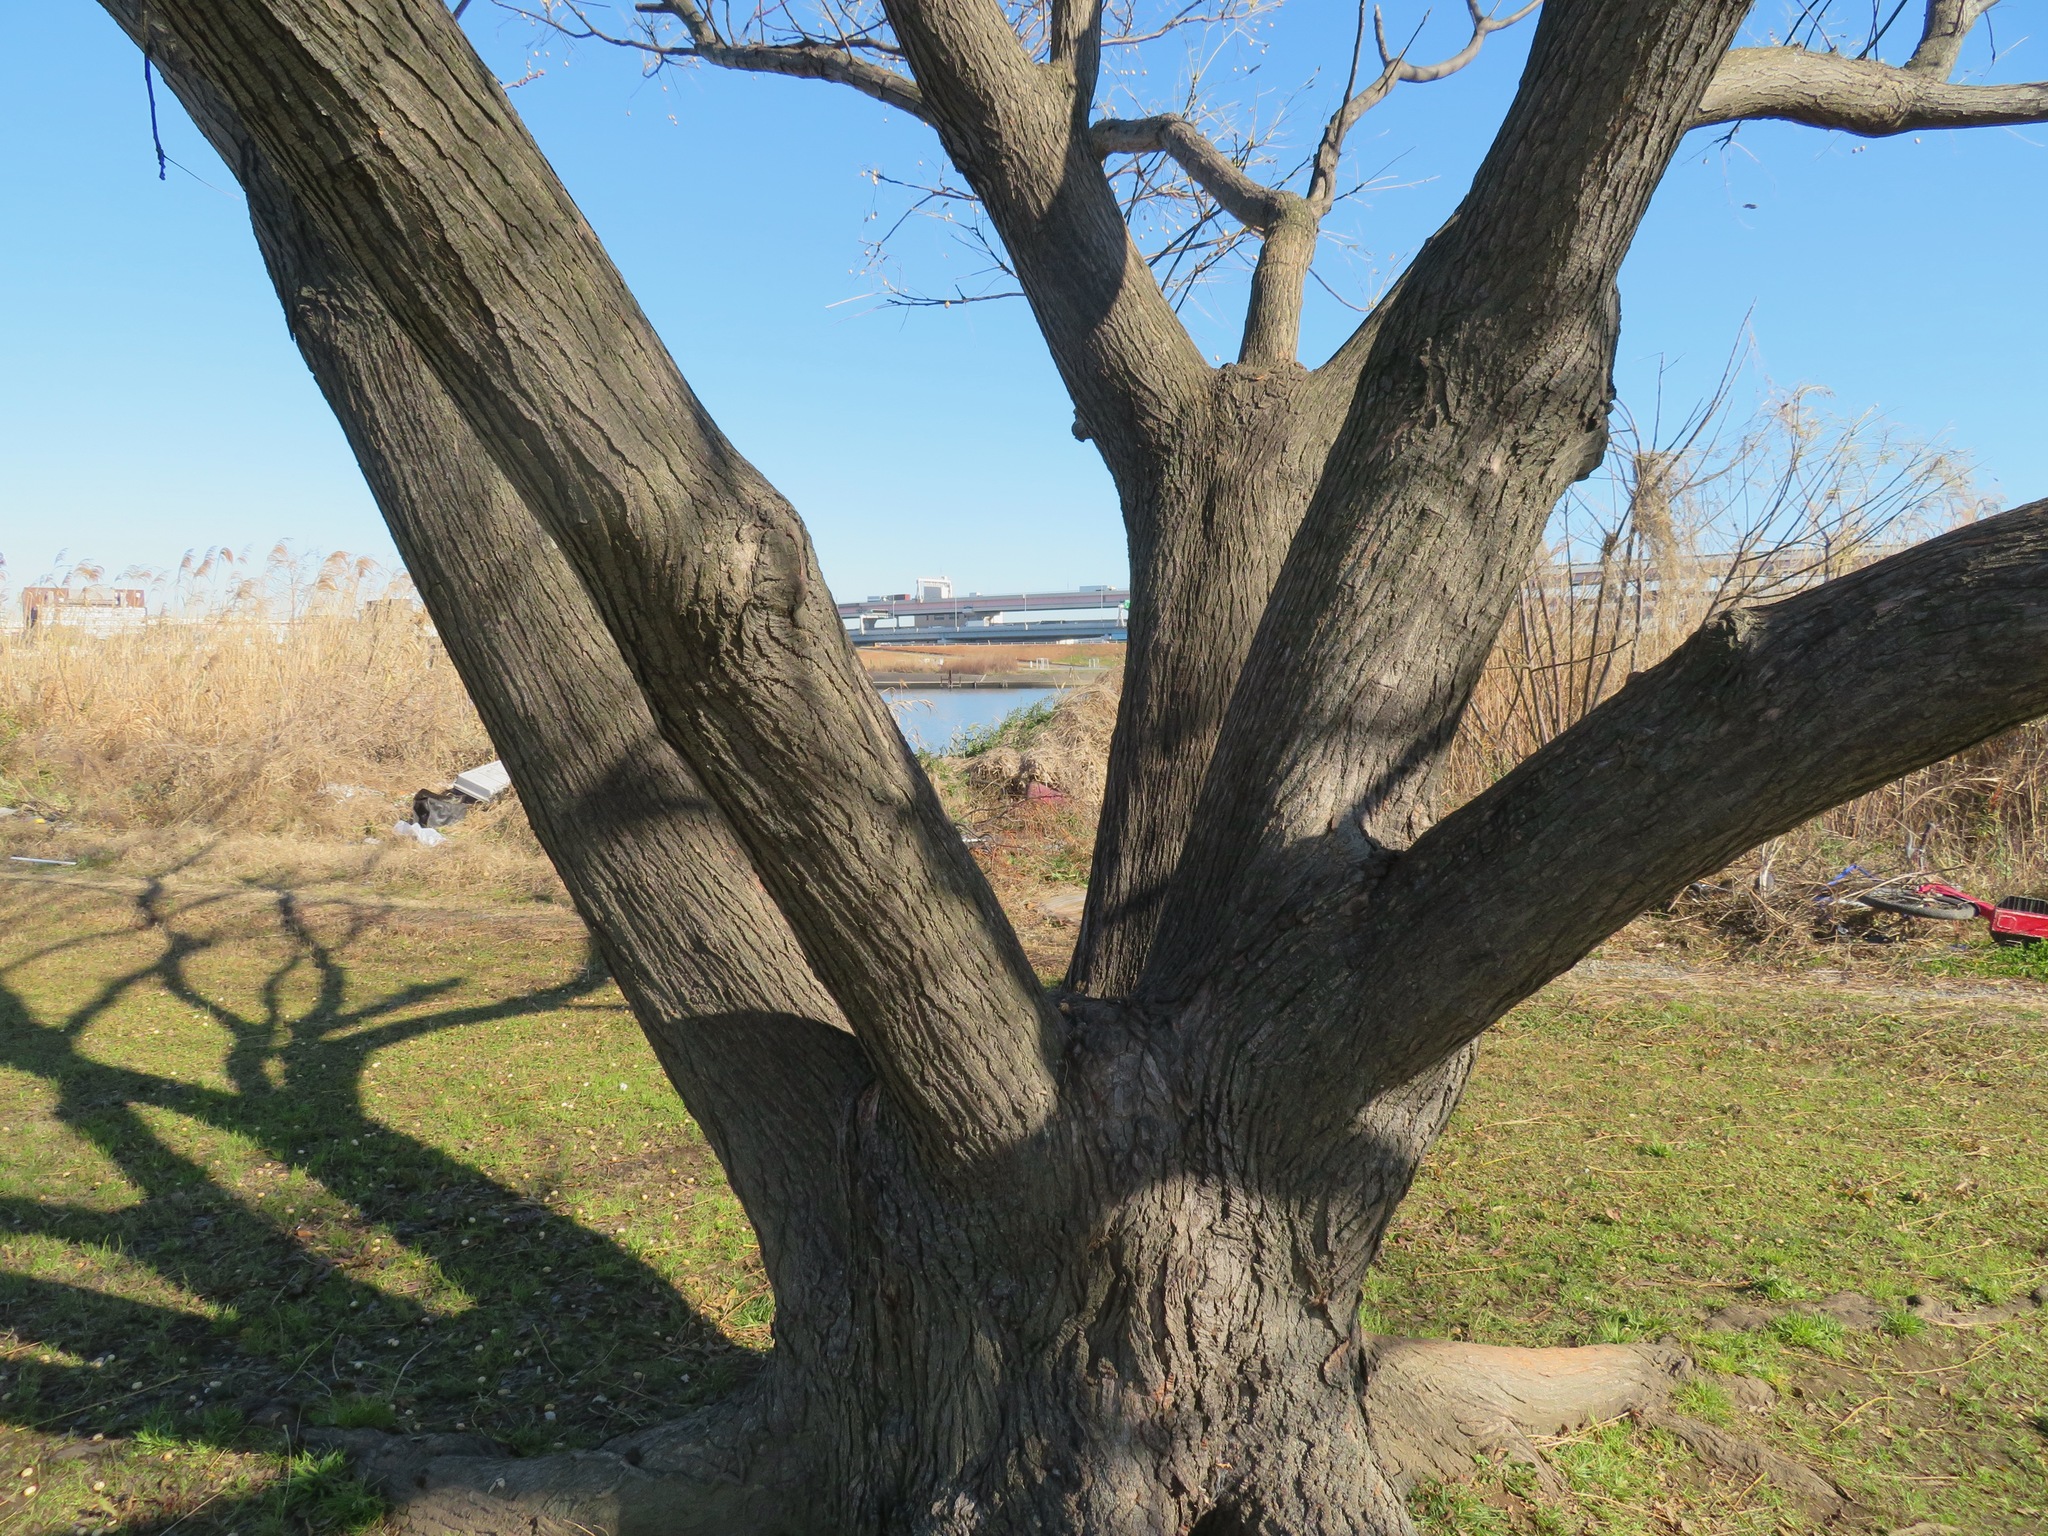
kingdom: Plantae
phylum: Tracheophyta
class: Magnoliopsida
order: Sapindales
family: Meliaceae
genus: Melia
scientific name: Melia azedarach
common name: Chinaberrytree
